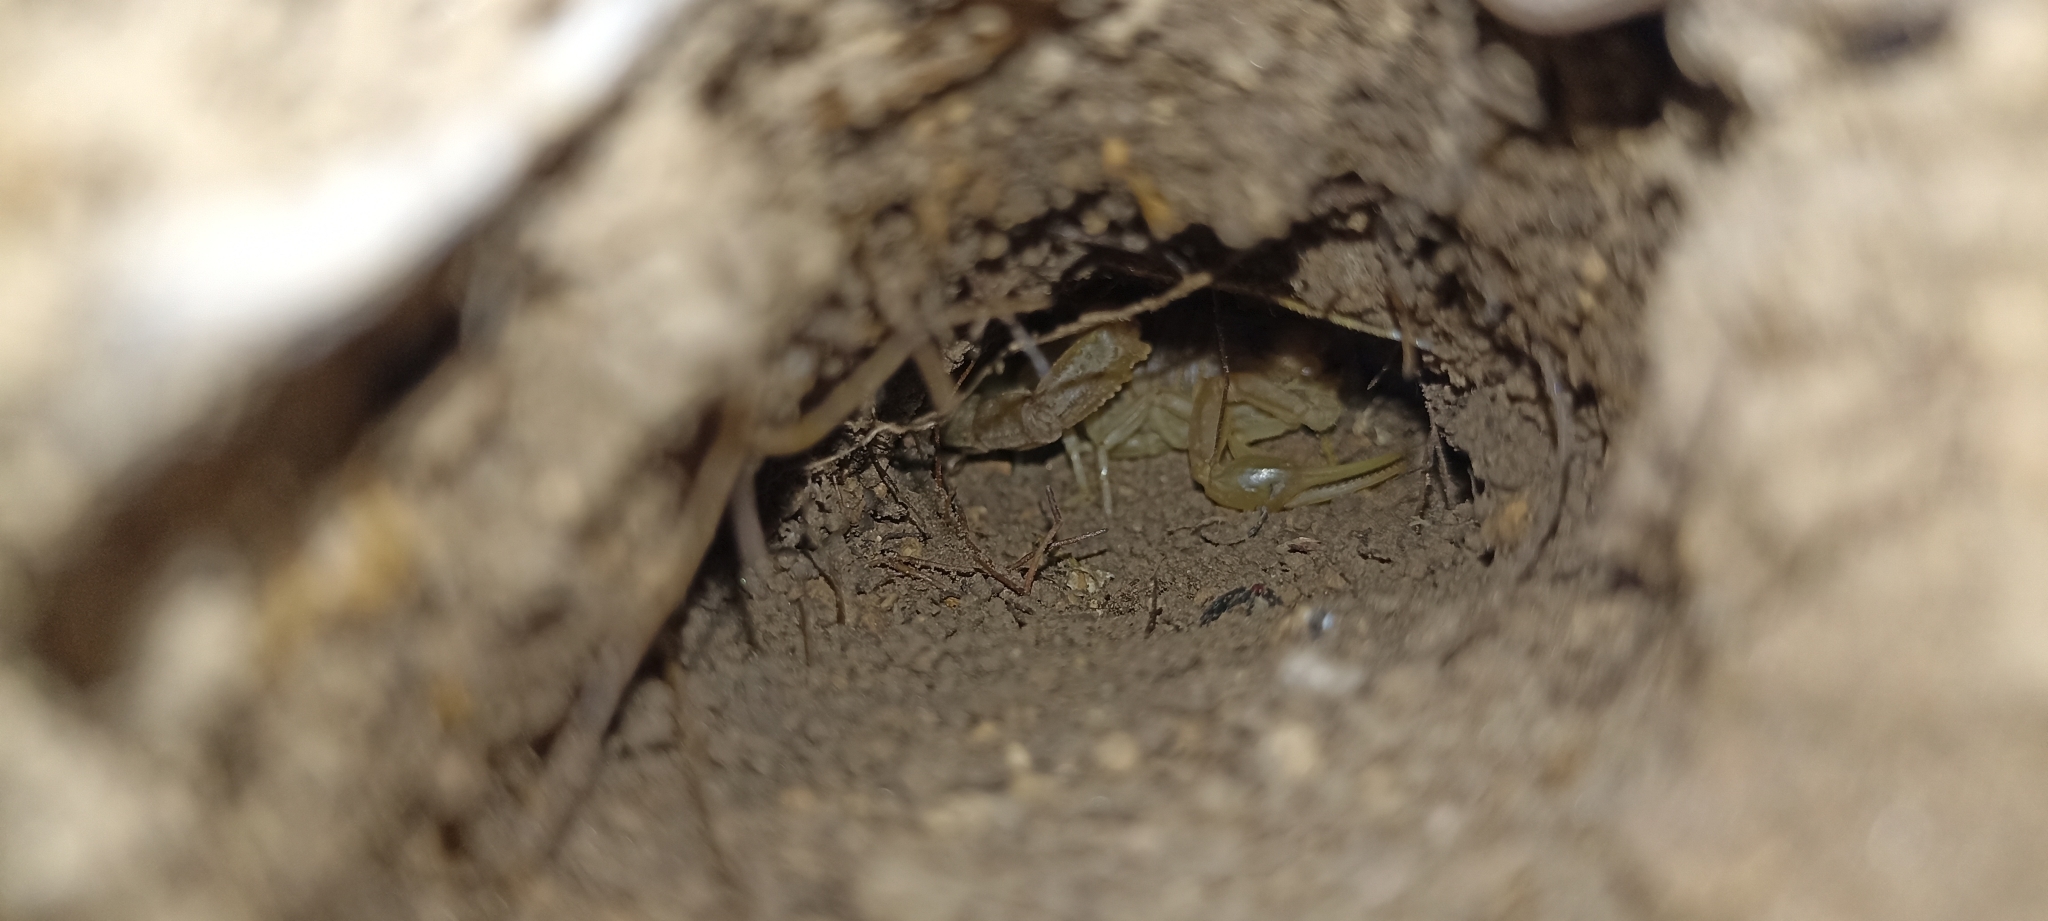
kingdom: Animalia
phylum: Arthropoda
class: Arachnida
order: Scorpiones
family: Buthidae
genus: Buthus
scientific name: Buthus occitanus
